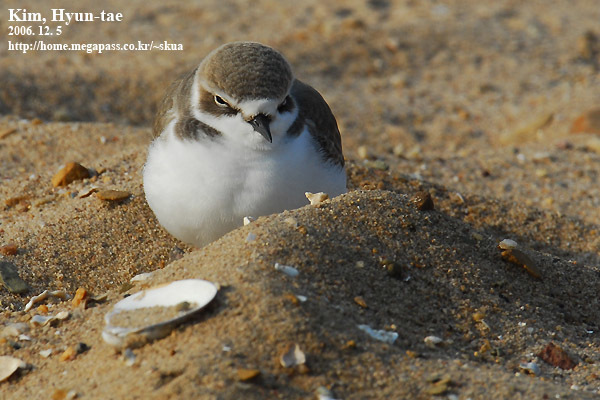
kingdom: Animalia
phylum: Chordata
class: Aves
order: Charadriiformes
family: Charadriidae
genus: Charadrius
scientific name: Charadrius alexandrinus
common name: Kentish plover
